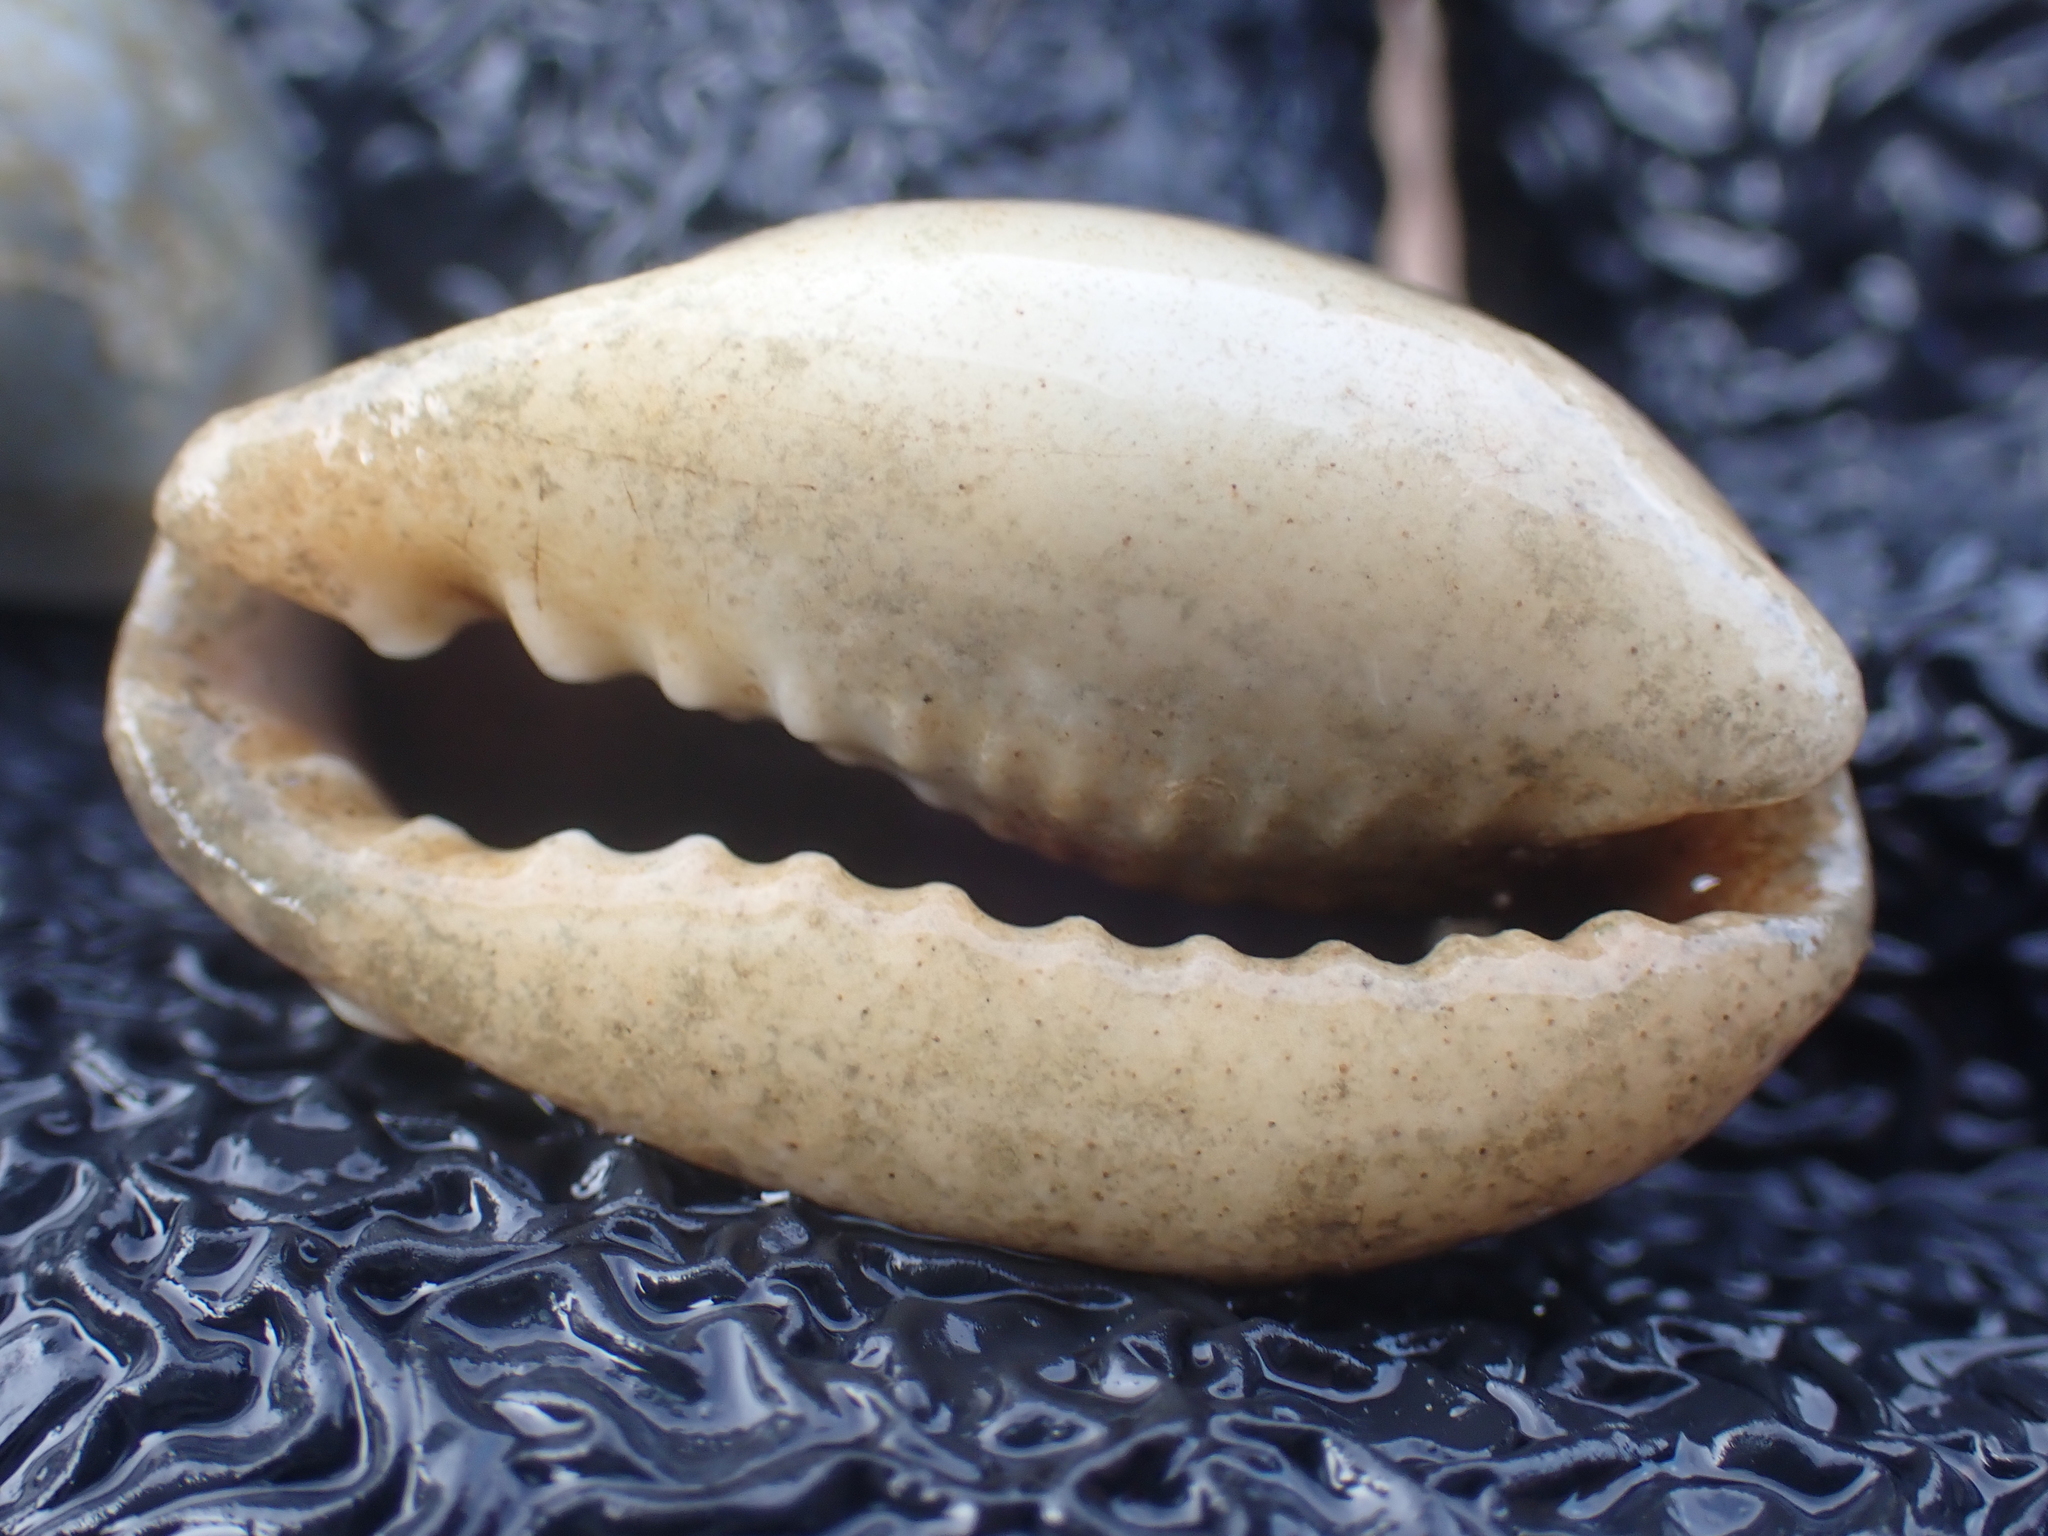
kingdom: Animalia
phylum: Mollusca
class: Gastropoda
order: Littorinimorpha
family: Cypraeidae
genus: Erronea
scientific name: Erronea errones
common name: Mistaken cowrie
